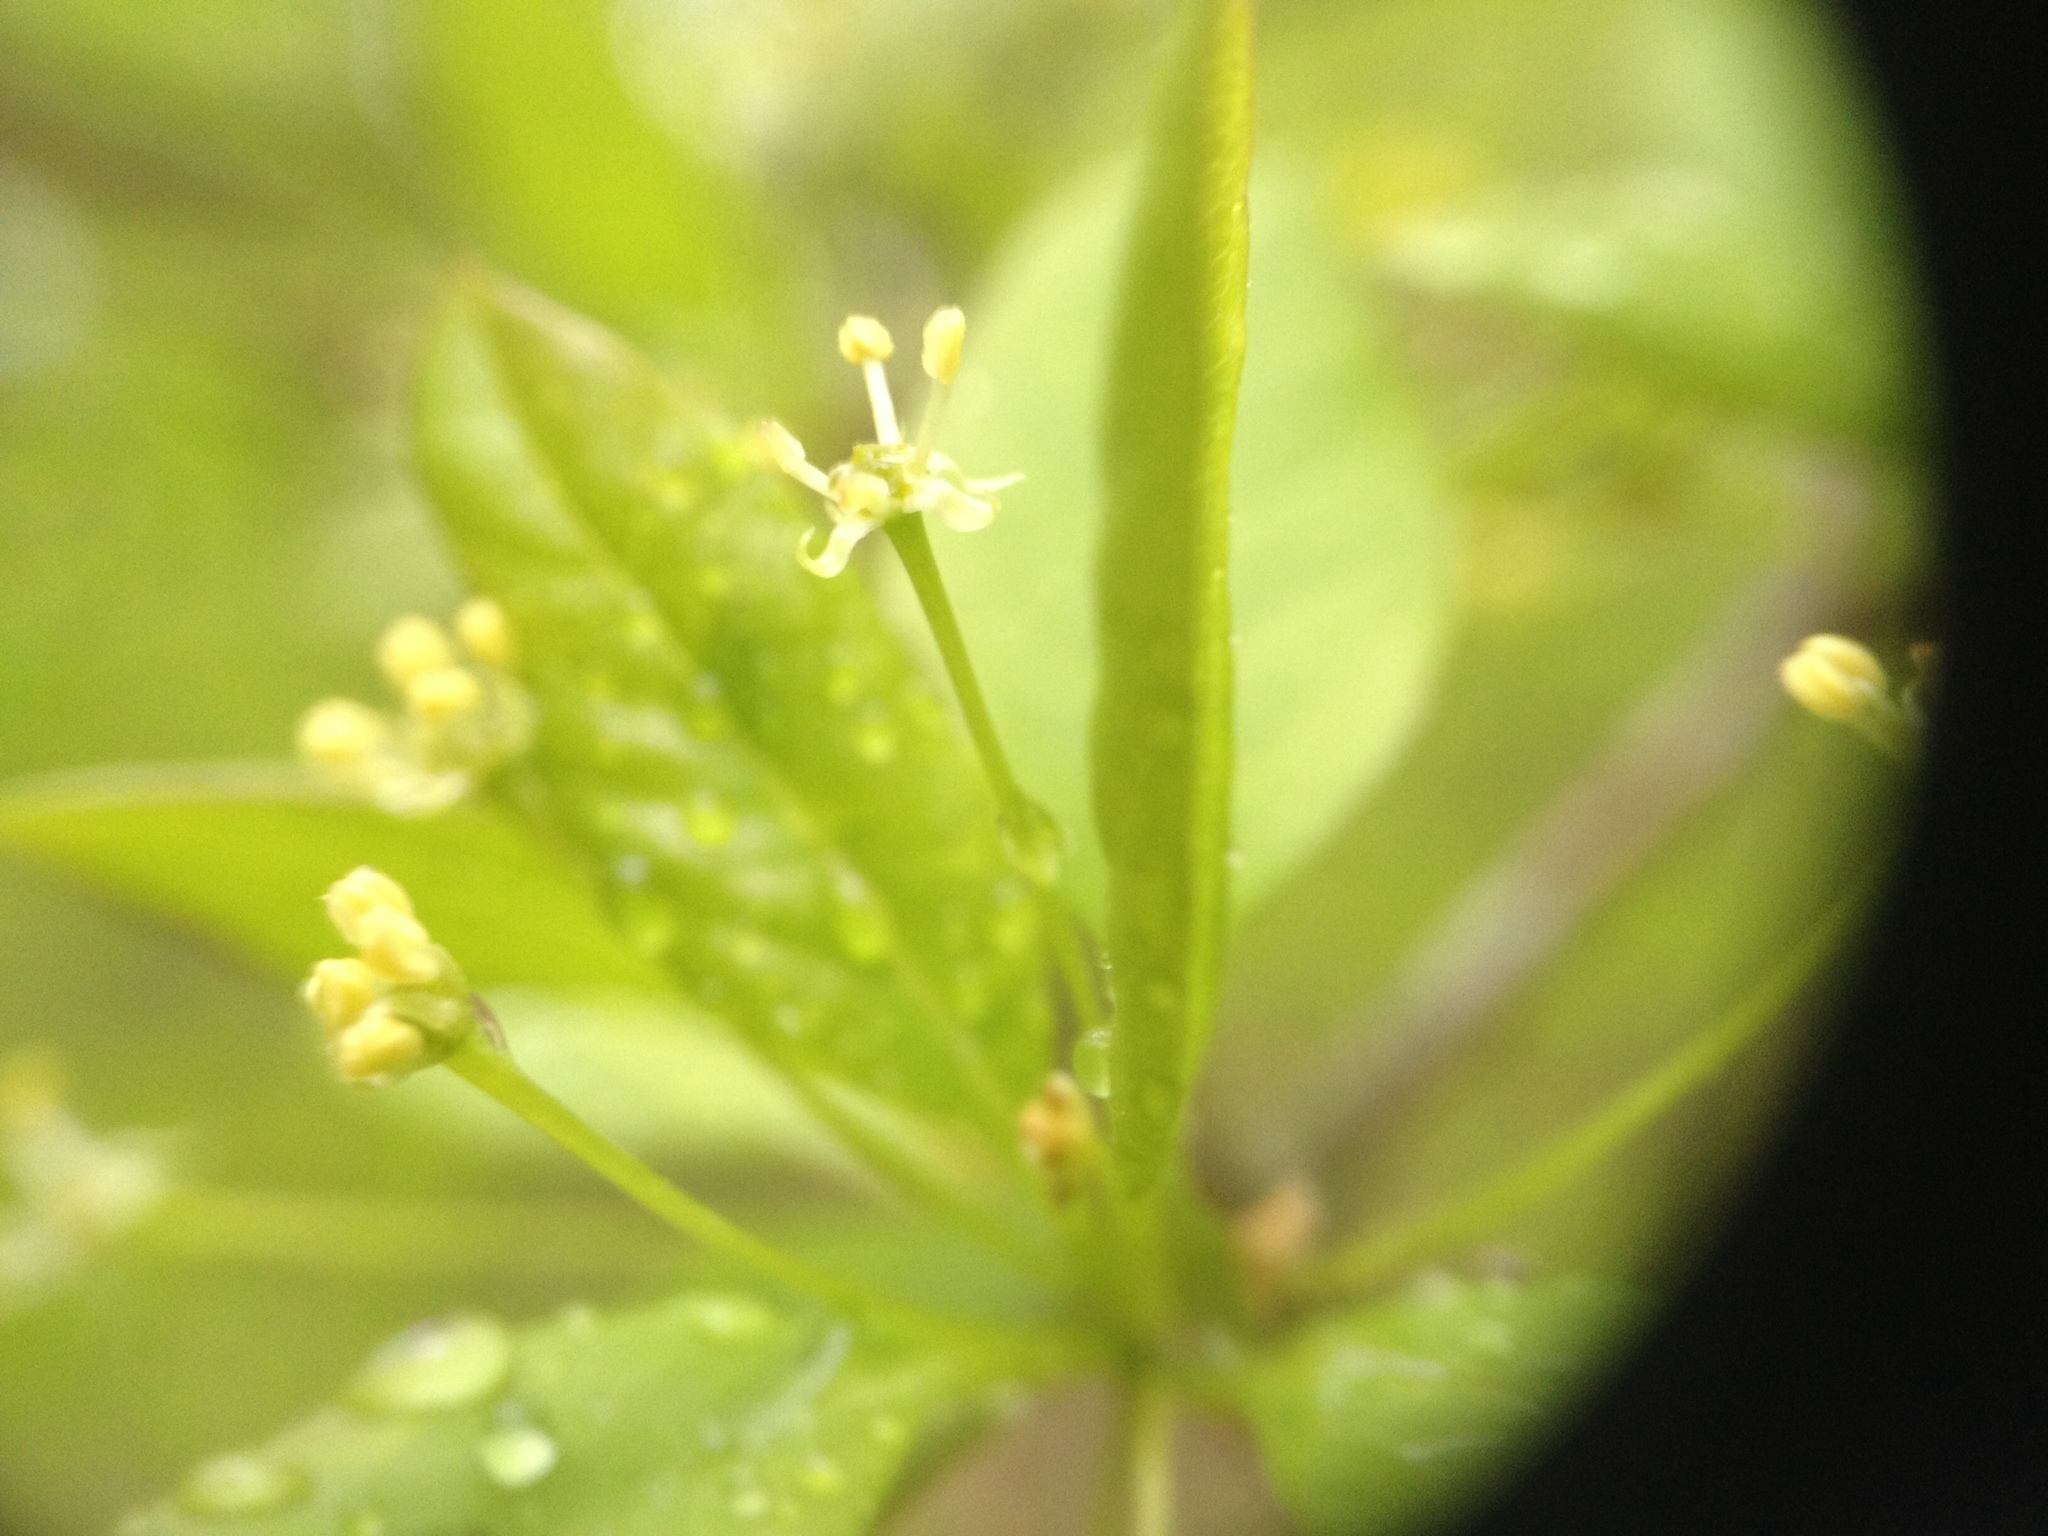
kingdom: Plantae
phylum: Tracheophyta
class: Magnoliopsida
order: Aquifoliales
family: Aquifoliaceae
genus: Ilex
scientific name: Ilex mucronata
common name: Catberry
